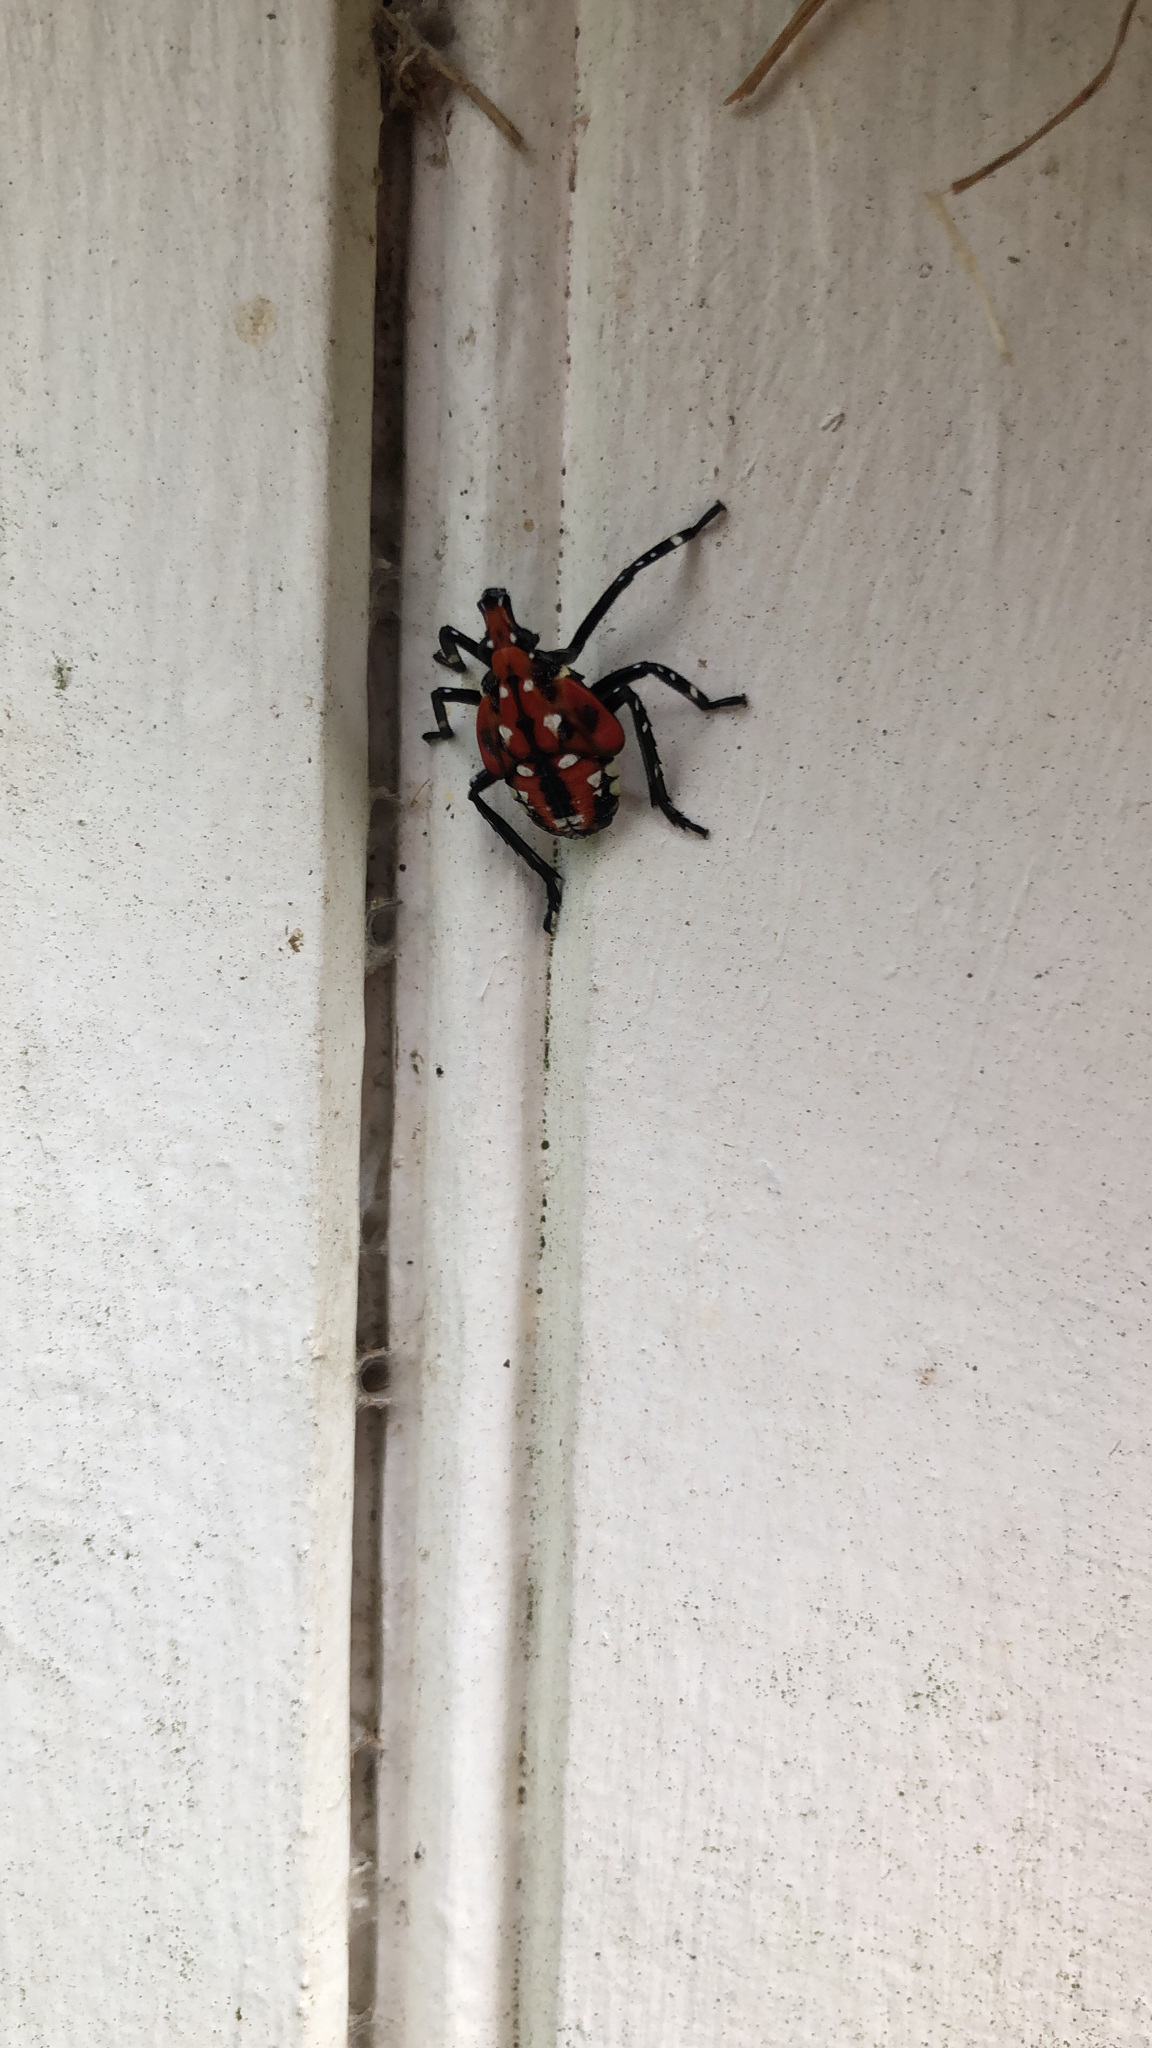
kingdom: Animalia
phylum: Arthropoda
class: Insecta
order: Hemiptera
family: Fulgoridae
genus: Lycorma
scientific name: Lycorma delicatula
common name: Spotted lanternfly
